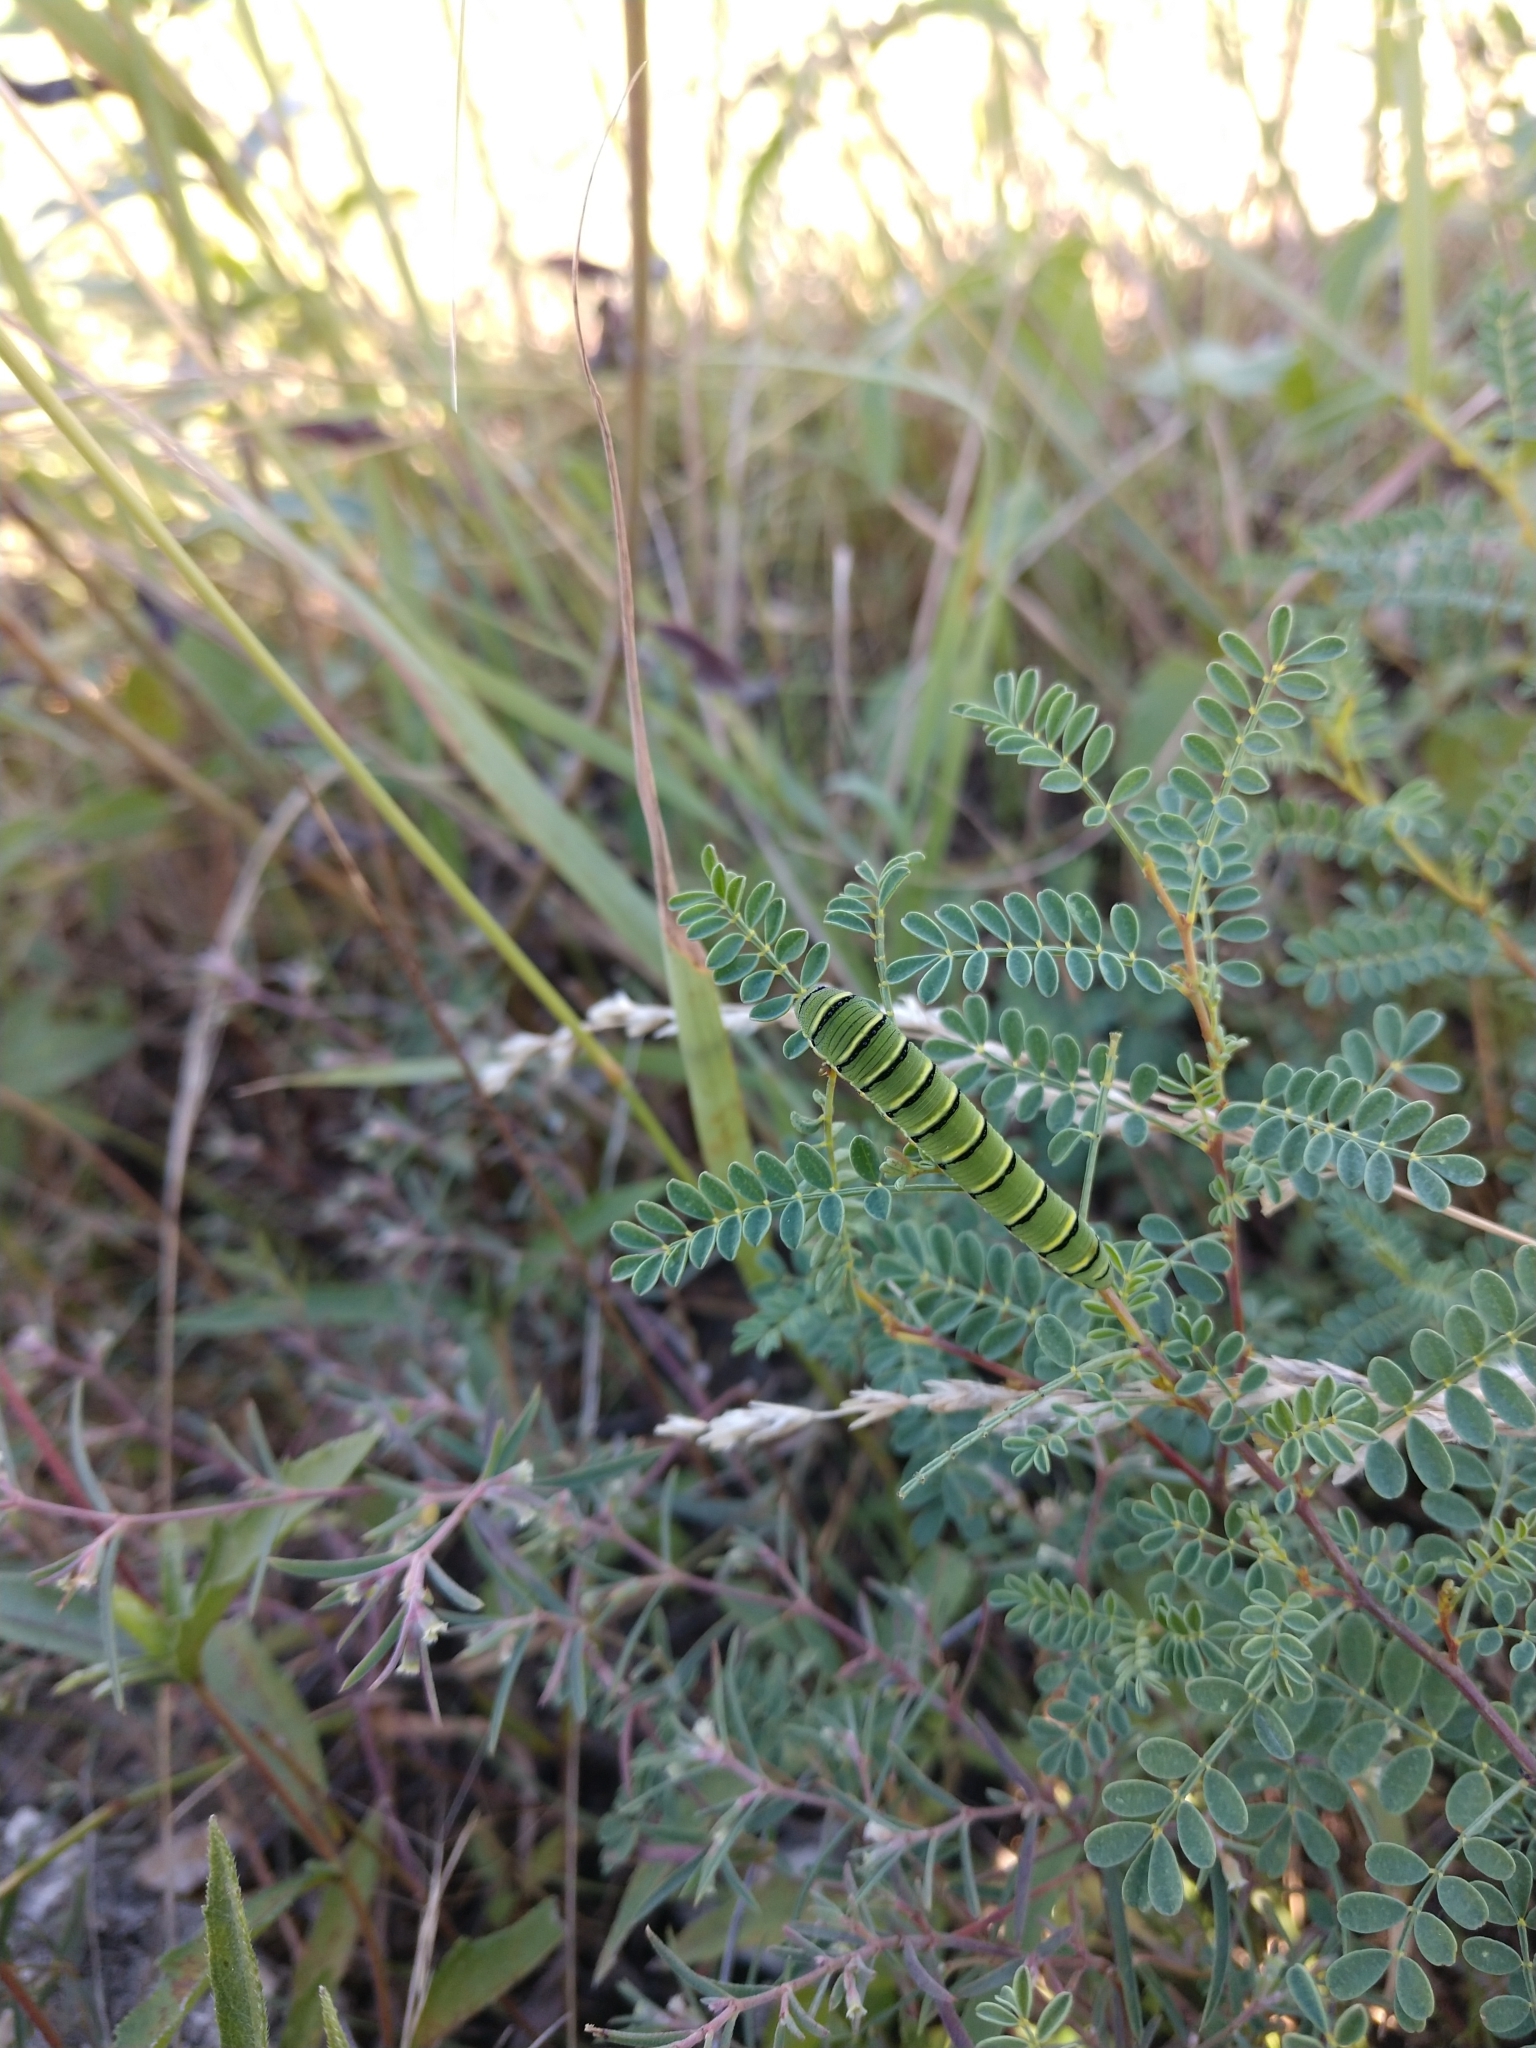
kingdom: Animalia
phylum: Arthropoda
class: Insecta
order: Lepidoptera
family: Pieridae
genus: Zerene
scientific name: Zerene cesonia
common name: Southern dogface
